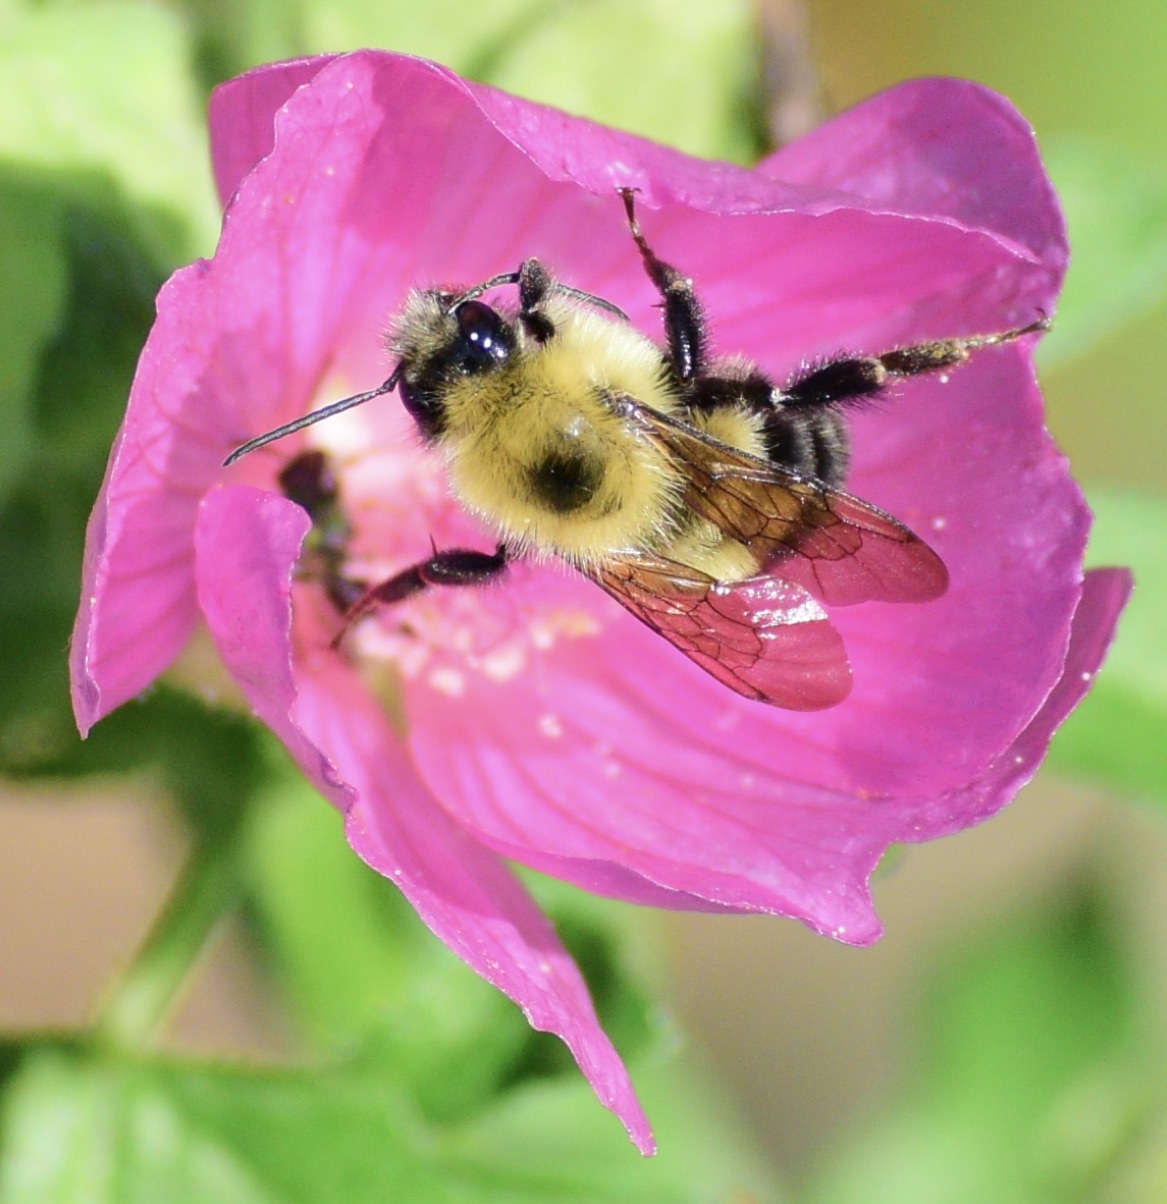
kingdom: Animalia
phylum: Arthropoda
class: Insecta
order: Hymenoptera
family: Apidae
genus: Bombus
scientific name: Bombus bimaculatus
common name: Two-spotted bumble bee
